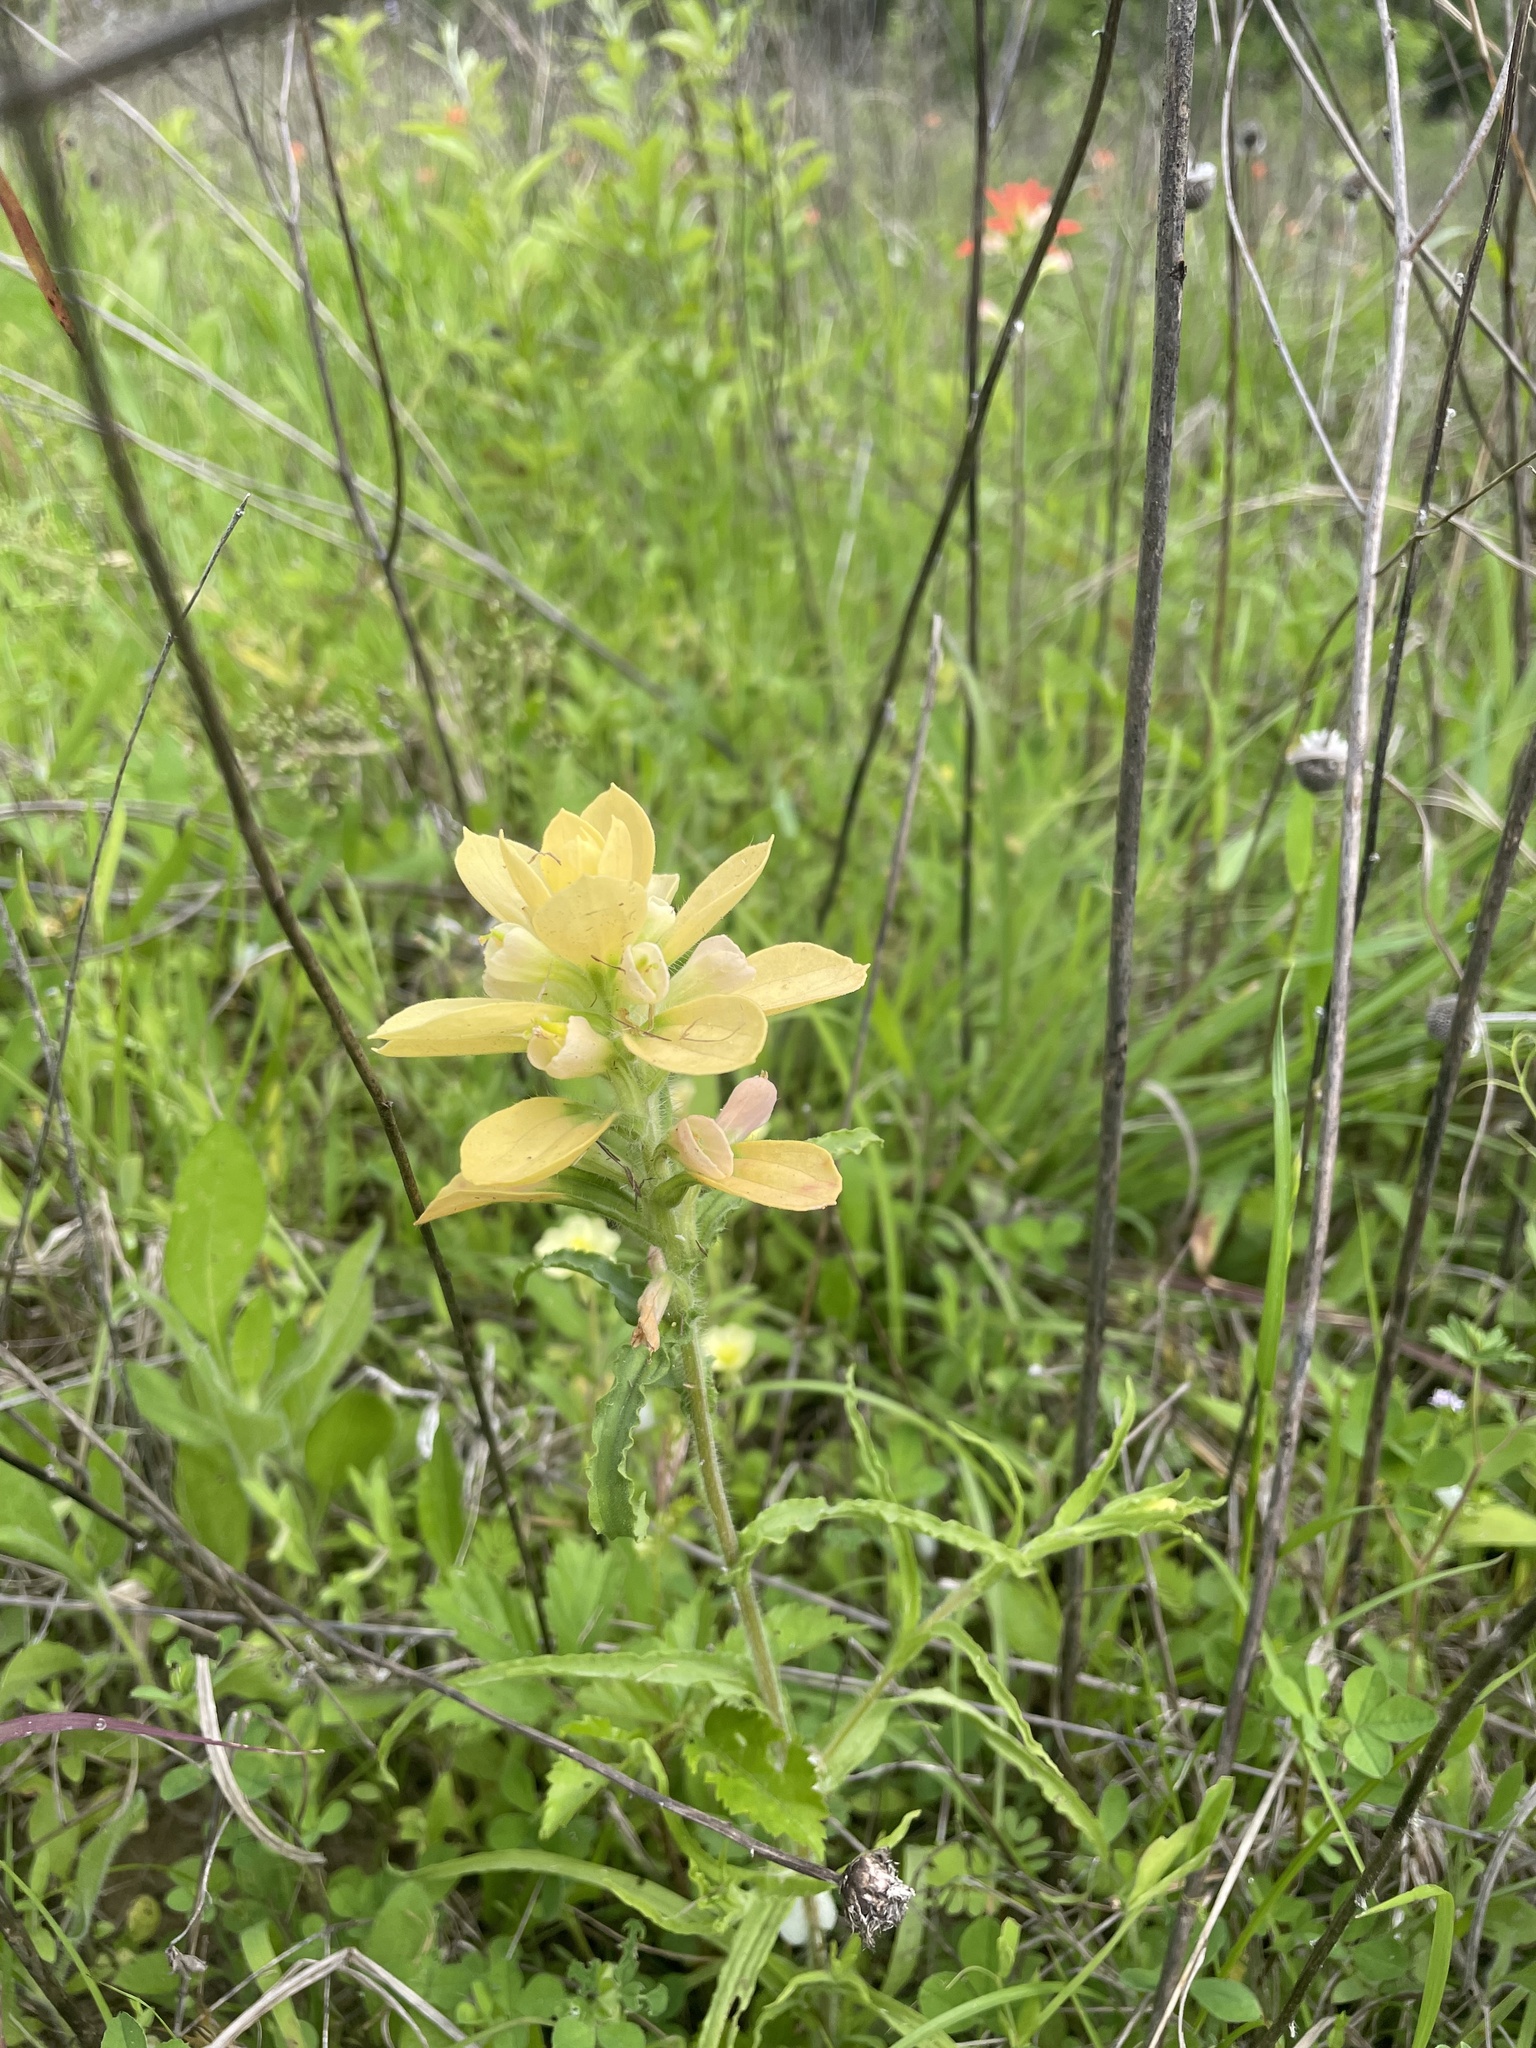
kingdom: Plantae
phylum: Tracheophyta
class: Magnoliopsida
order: Lamiales
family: Orobanchaceae
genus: Castilleja
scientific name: Castilleja indivisa
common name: Texas paintbrush
